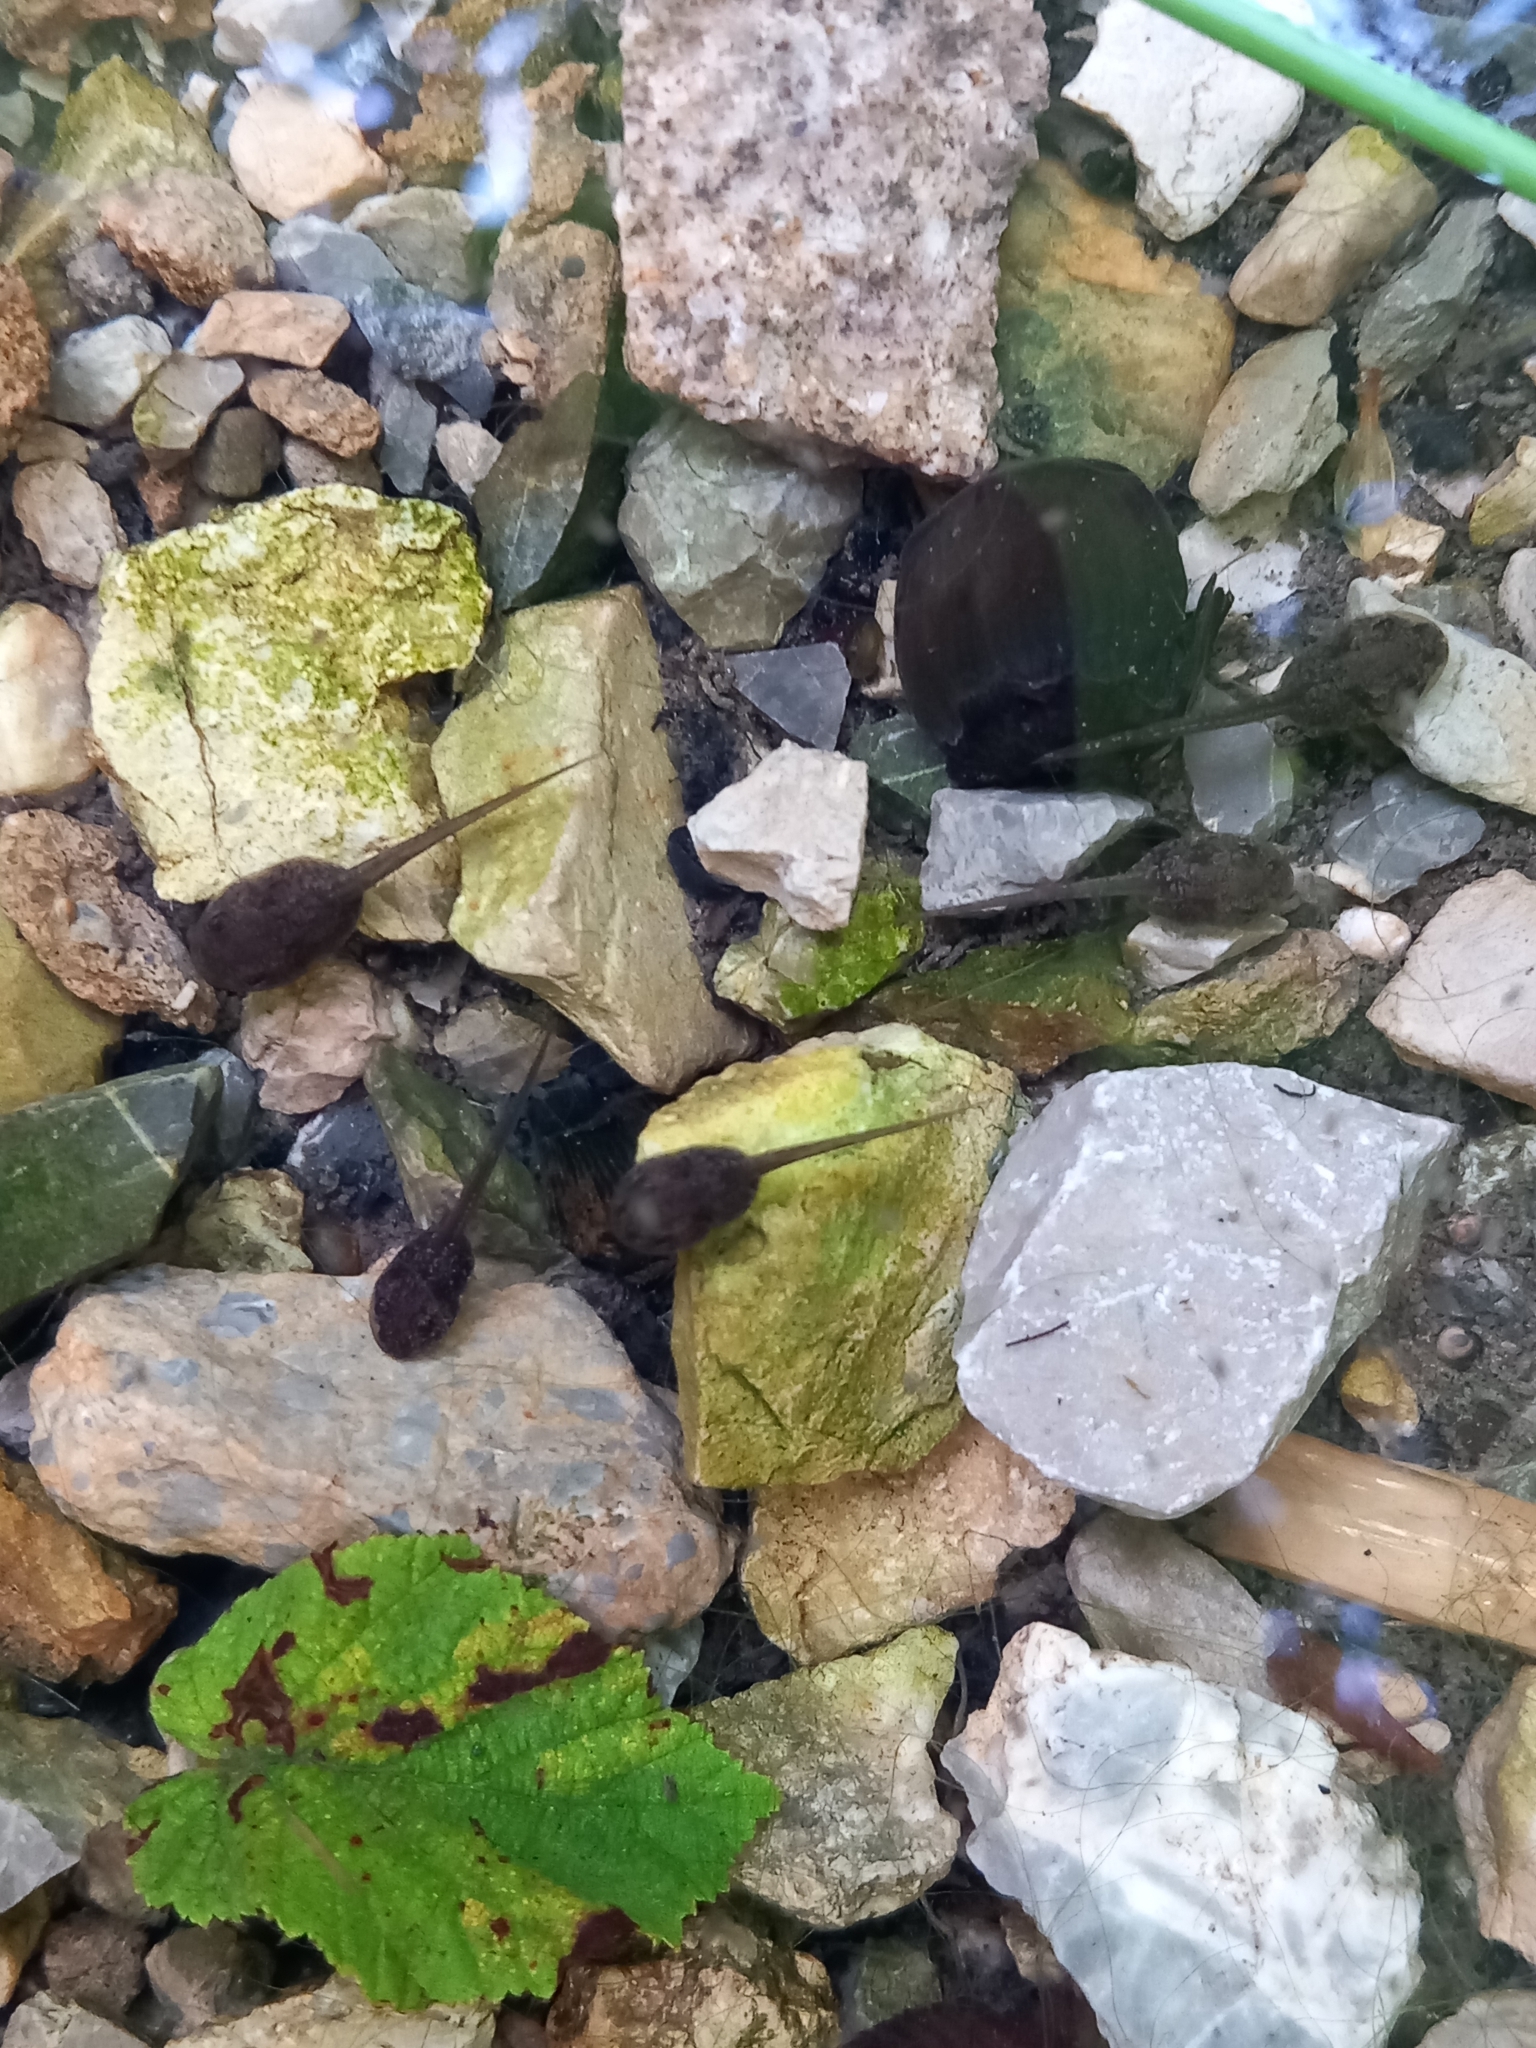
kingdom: Animalia
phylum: Chordata
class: Amphibia
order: Anura
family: Ranidae
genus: Rana
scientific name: Rana dalmatina
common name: Agile frog
